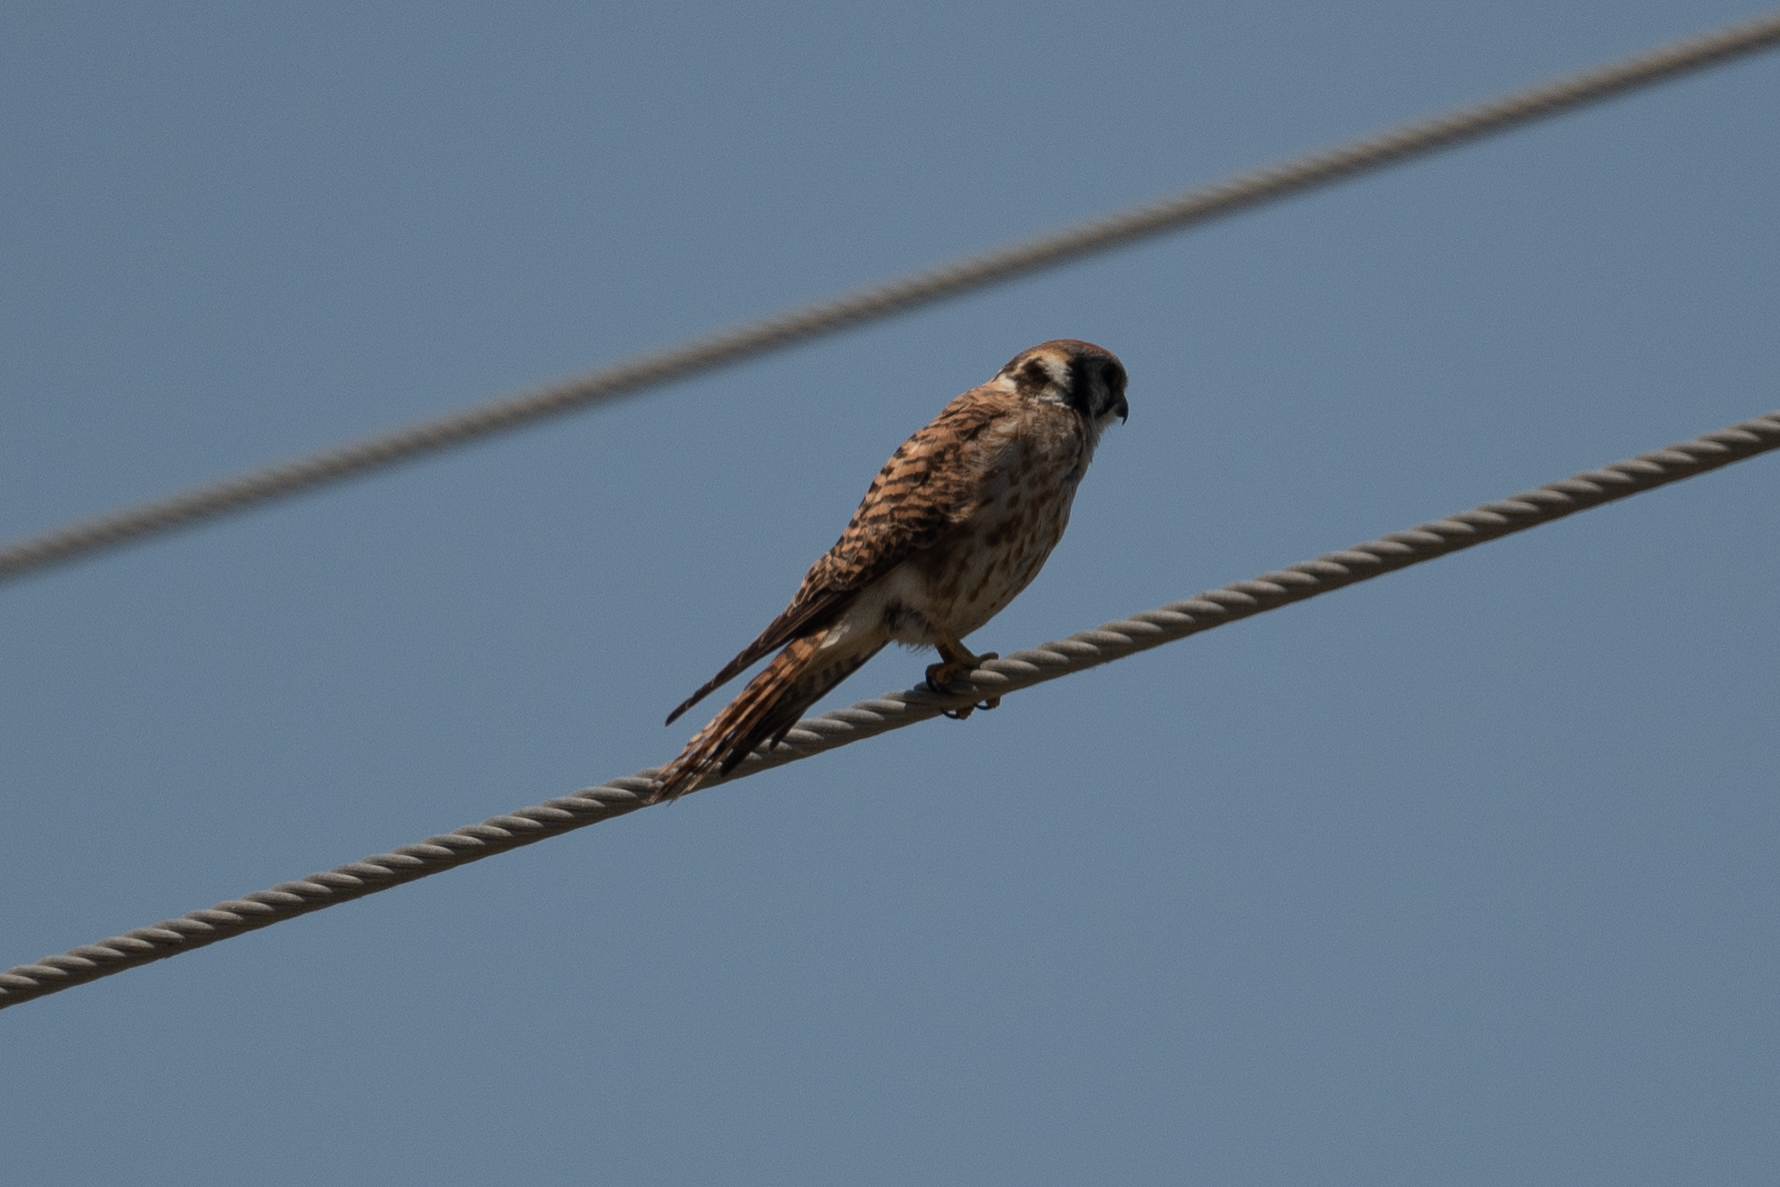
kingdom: Animalia
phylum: Chordata
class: Aves
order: Falconiformes
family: Falconidae
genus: Falco
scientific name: Falco sparverius
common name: American kestrel
